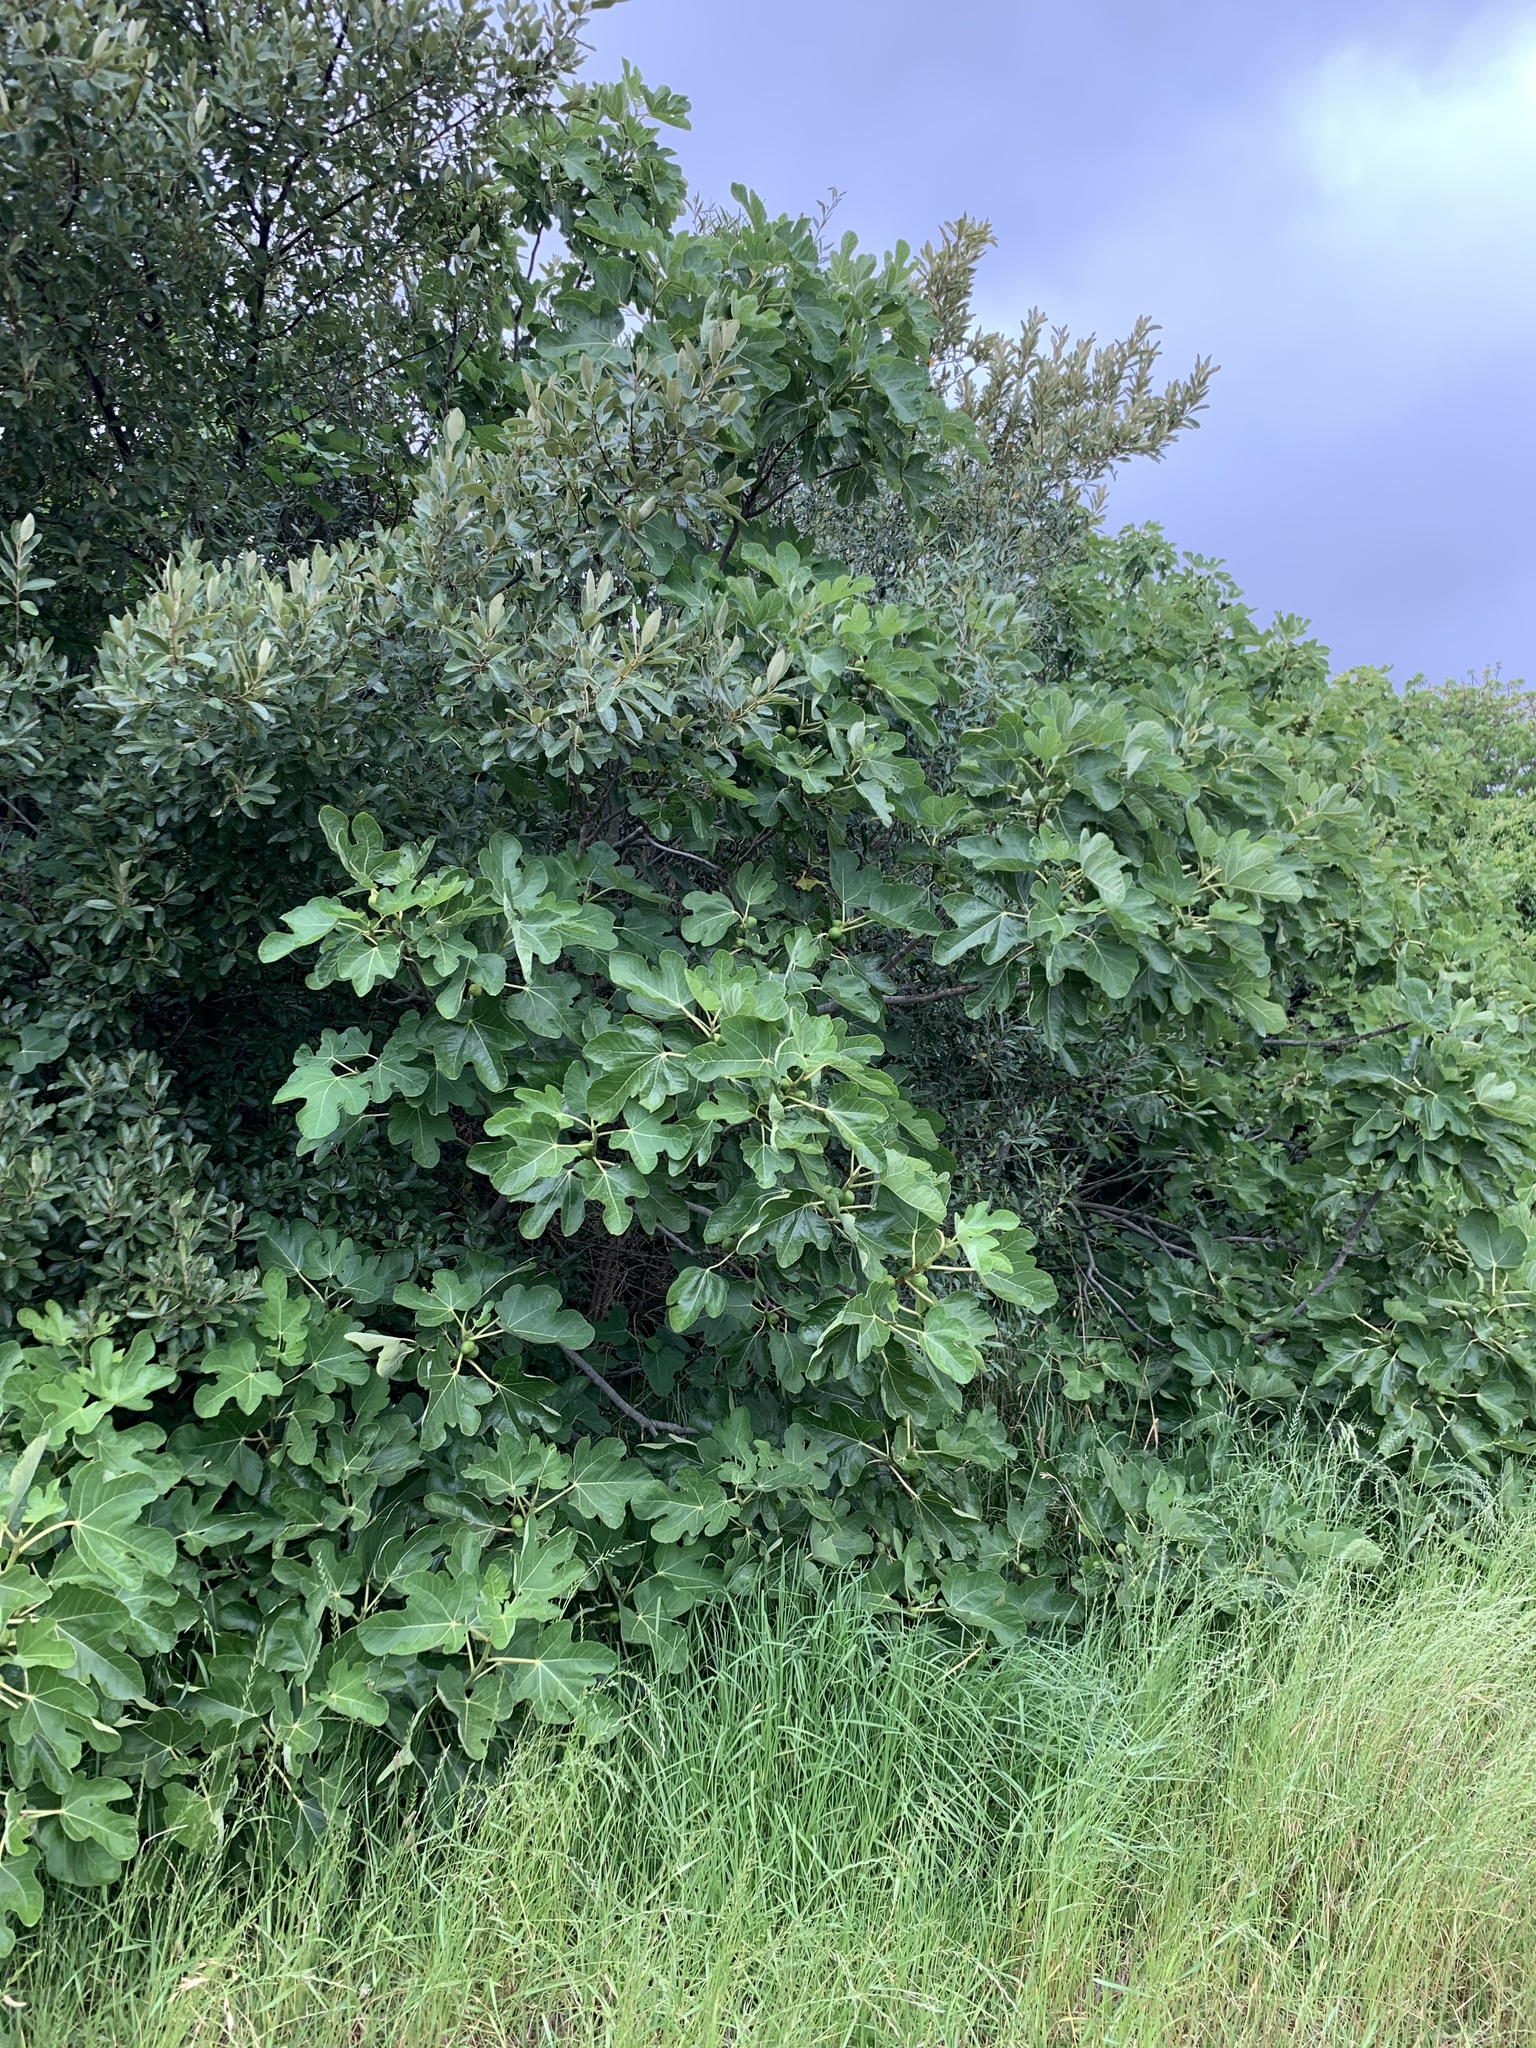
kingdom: Plantae
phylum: Tracheophyta
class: Magnoliopsida
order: Rosales
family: Moraceae
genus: Ficus
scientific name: Ficus carica
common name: Fig
